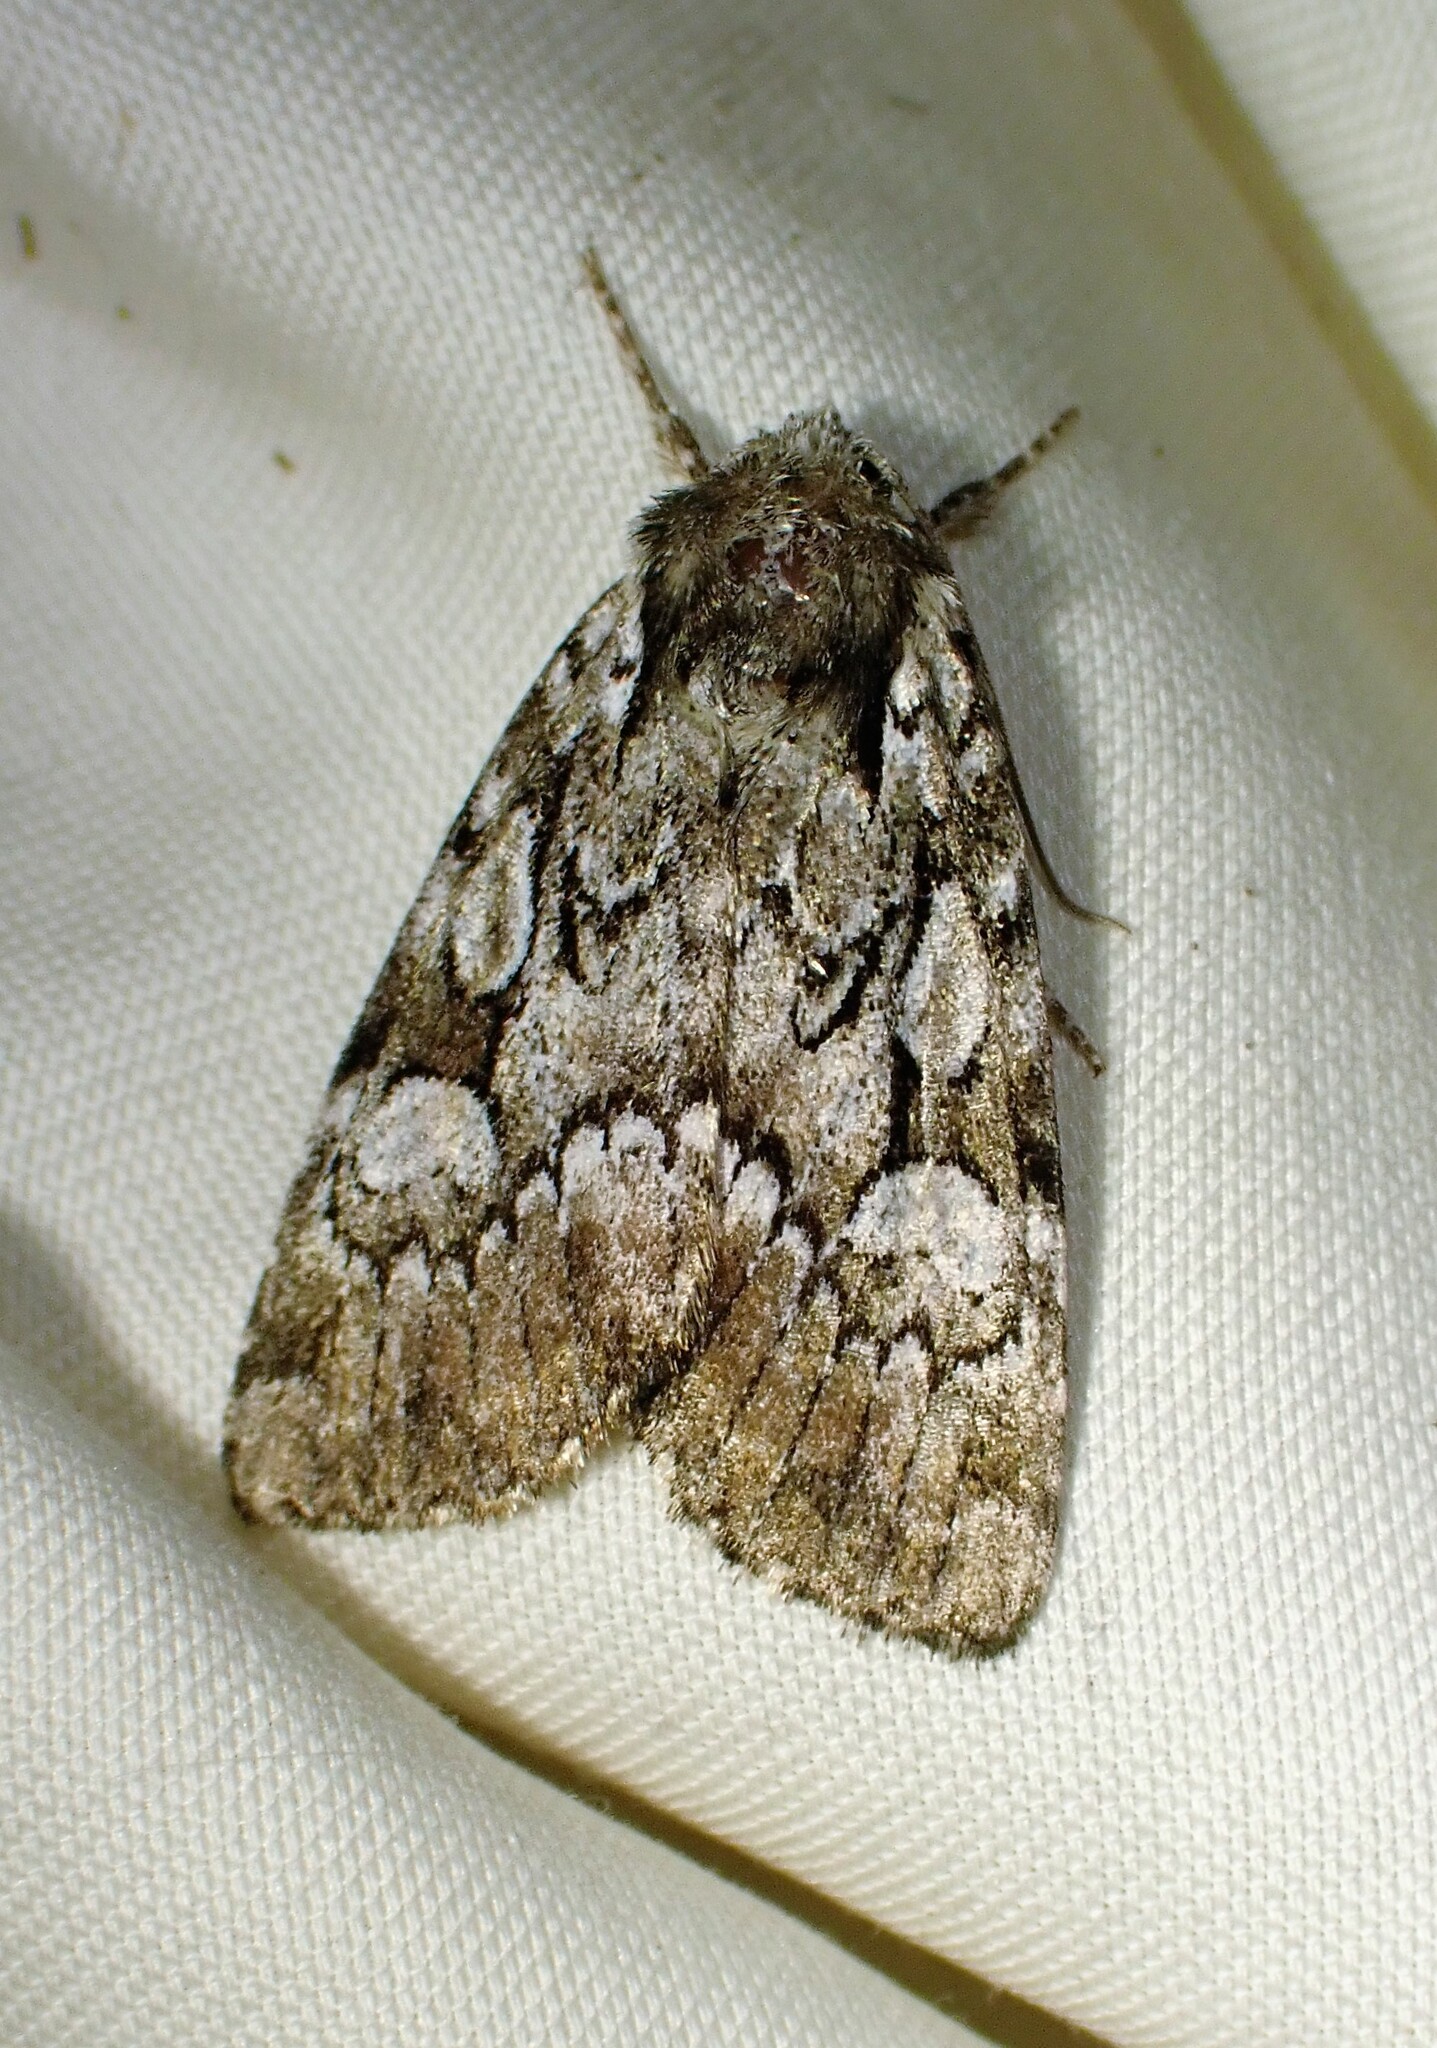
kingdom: Animalia
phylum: Arthropoda
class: Insecta
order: Lepidoptera
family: Noctuidae
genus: Aplectoides
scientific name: Aplectoides condita
